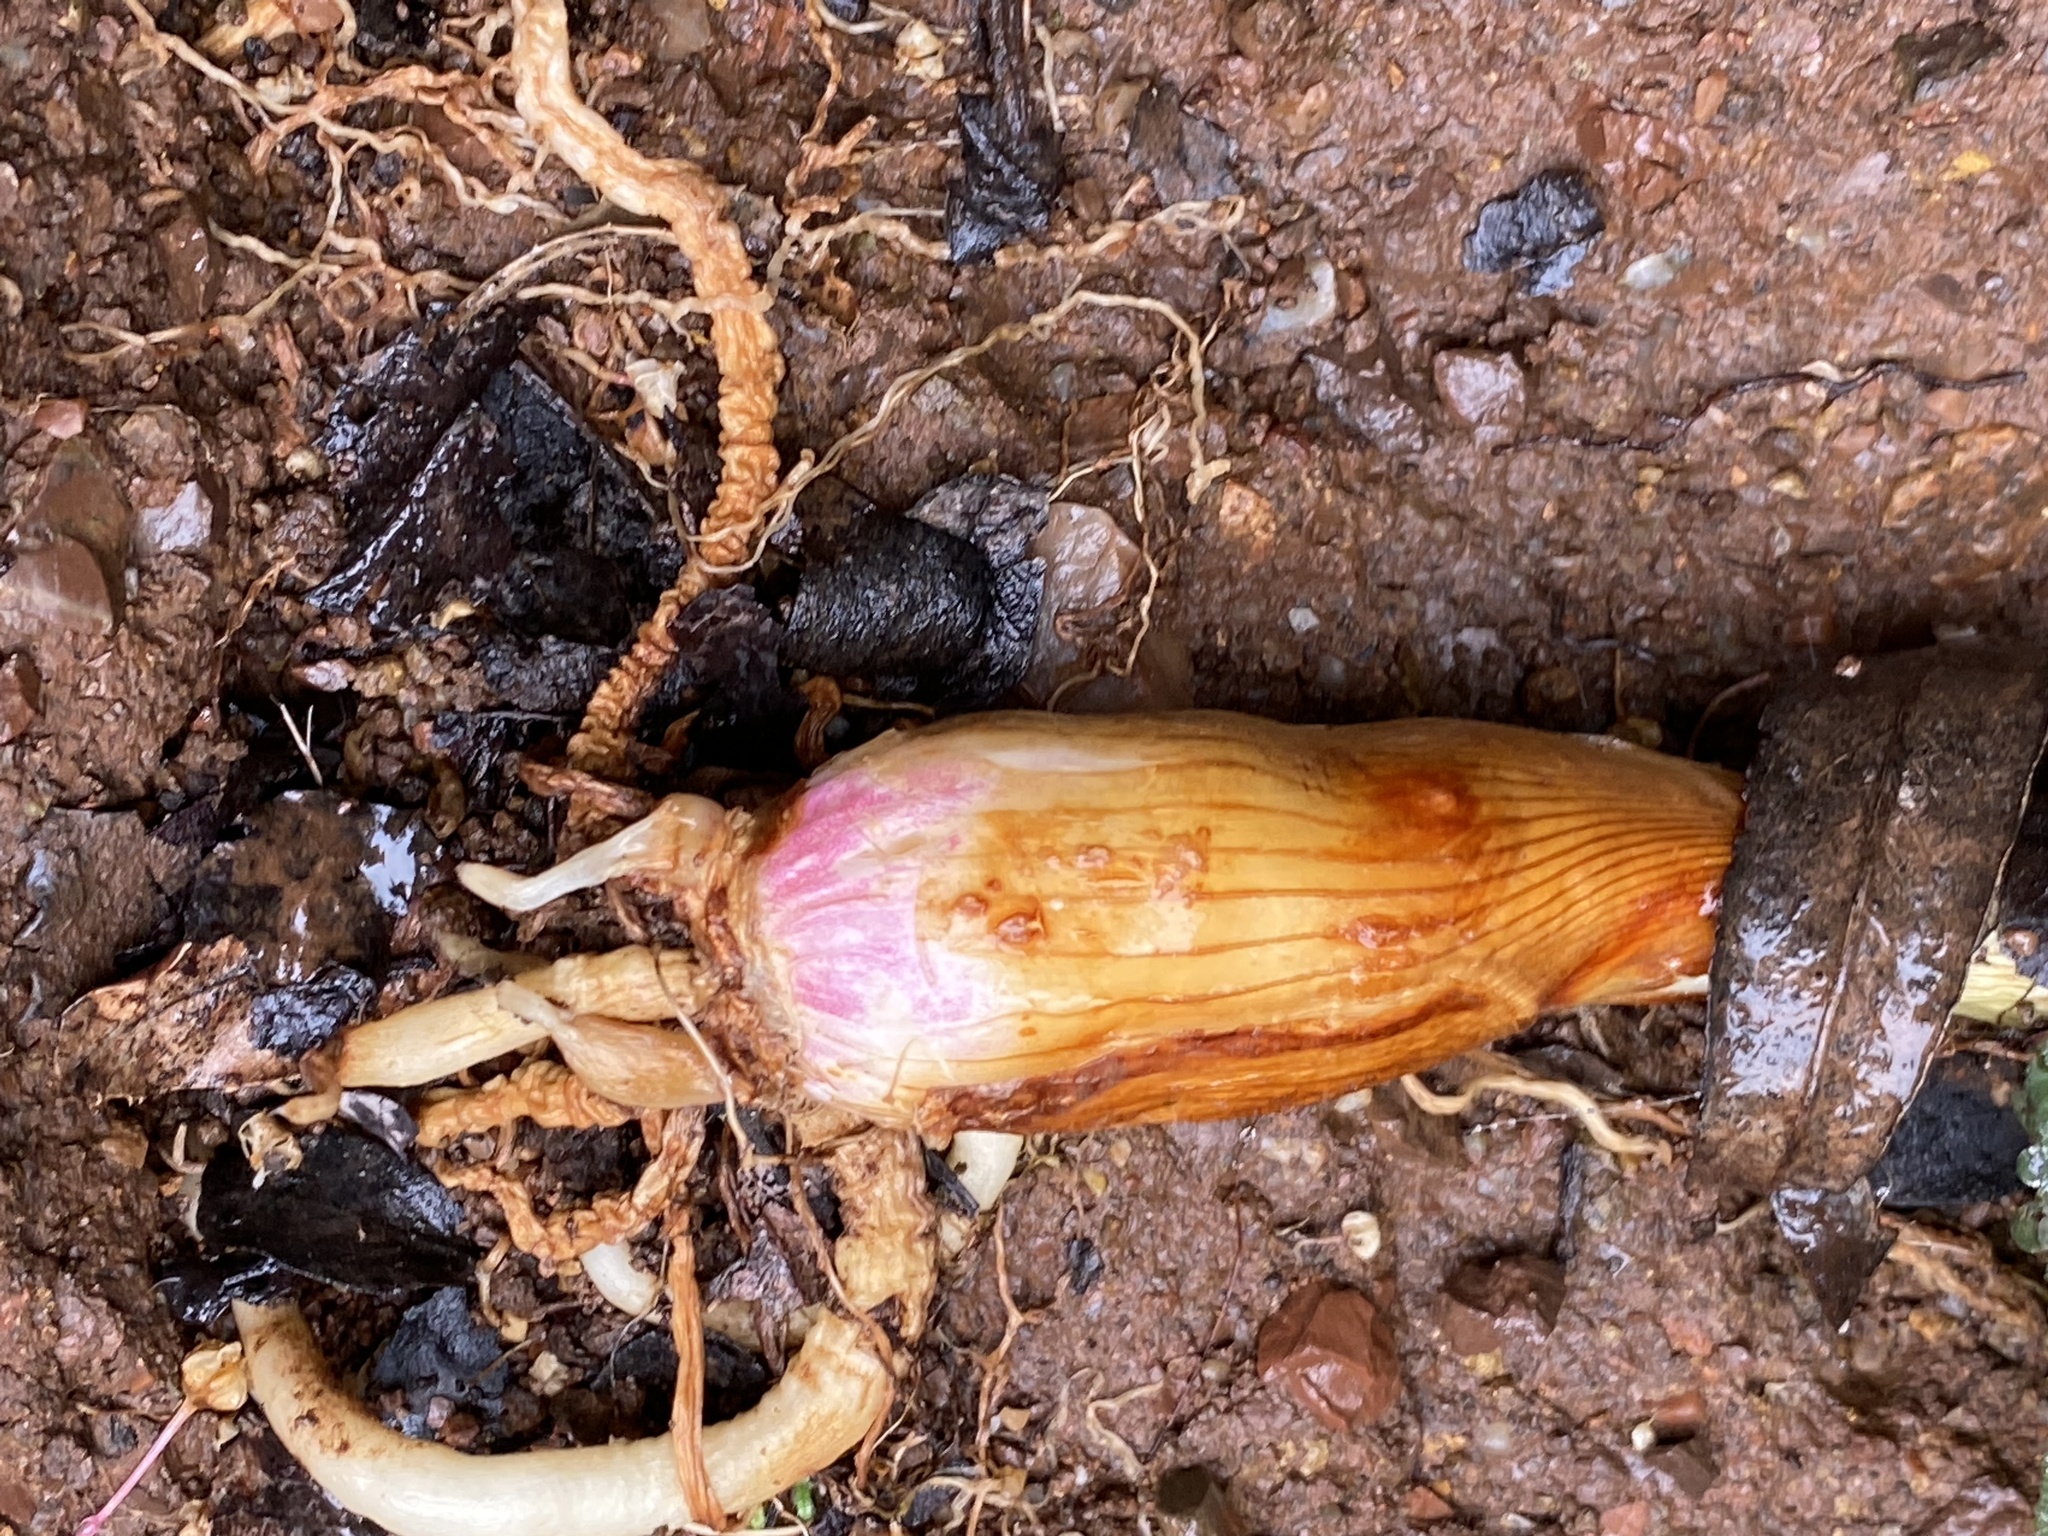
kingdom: Plantae
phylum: Tracheophyta
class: Liliopsida
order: Asparagales
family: Asparagaceae
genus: Chlorogalum
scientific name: Chlorogalum pomeridianum
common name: Amole
